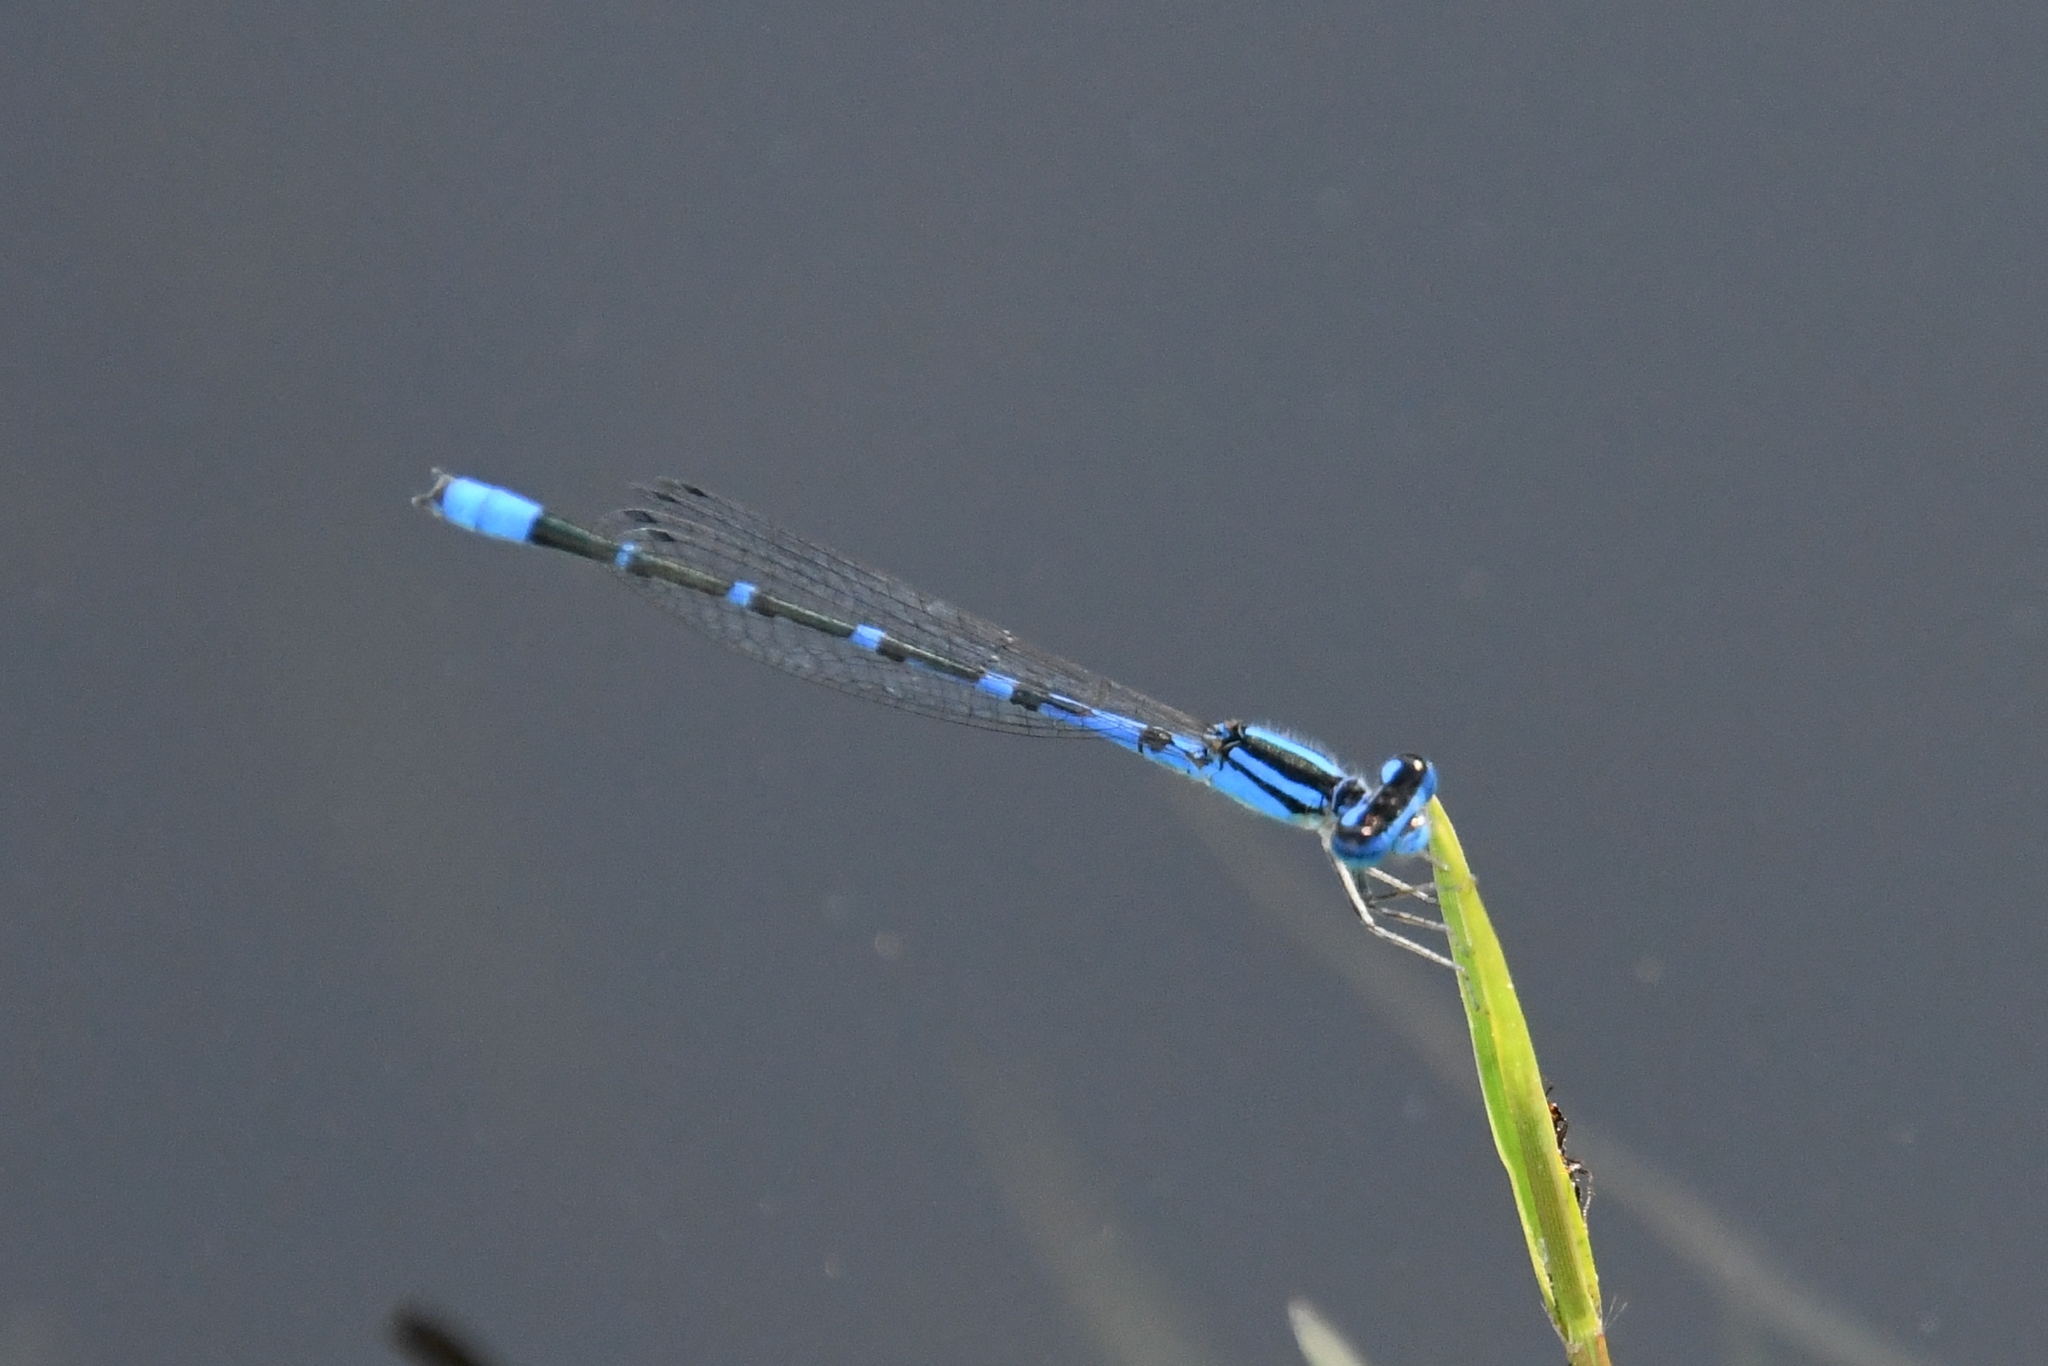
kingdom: Animalia
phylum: Arthropoda
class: Insecta
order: Odonata
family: Coenagrionidae
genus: Enallagma
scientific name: Enallagma praevarum
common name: Arroyo bluet
